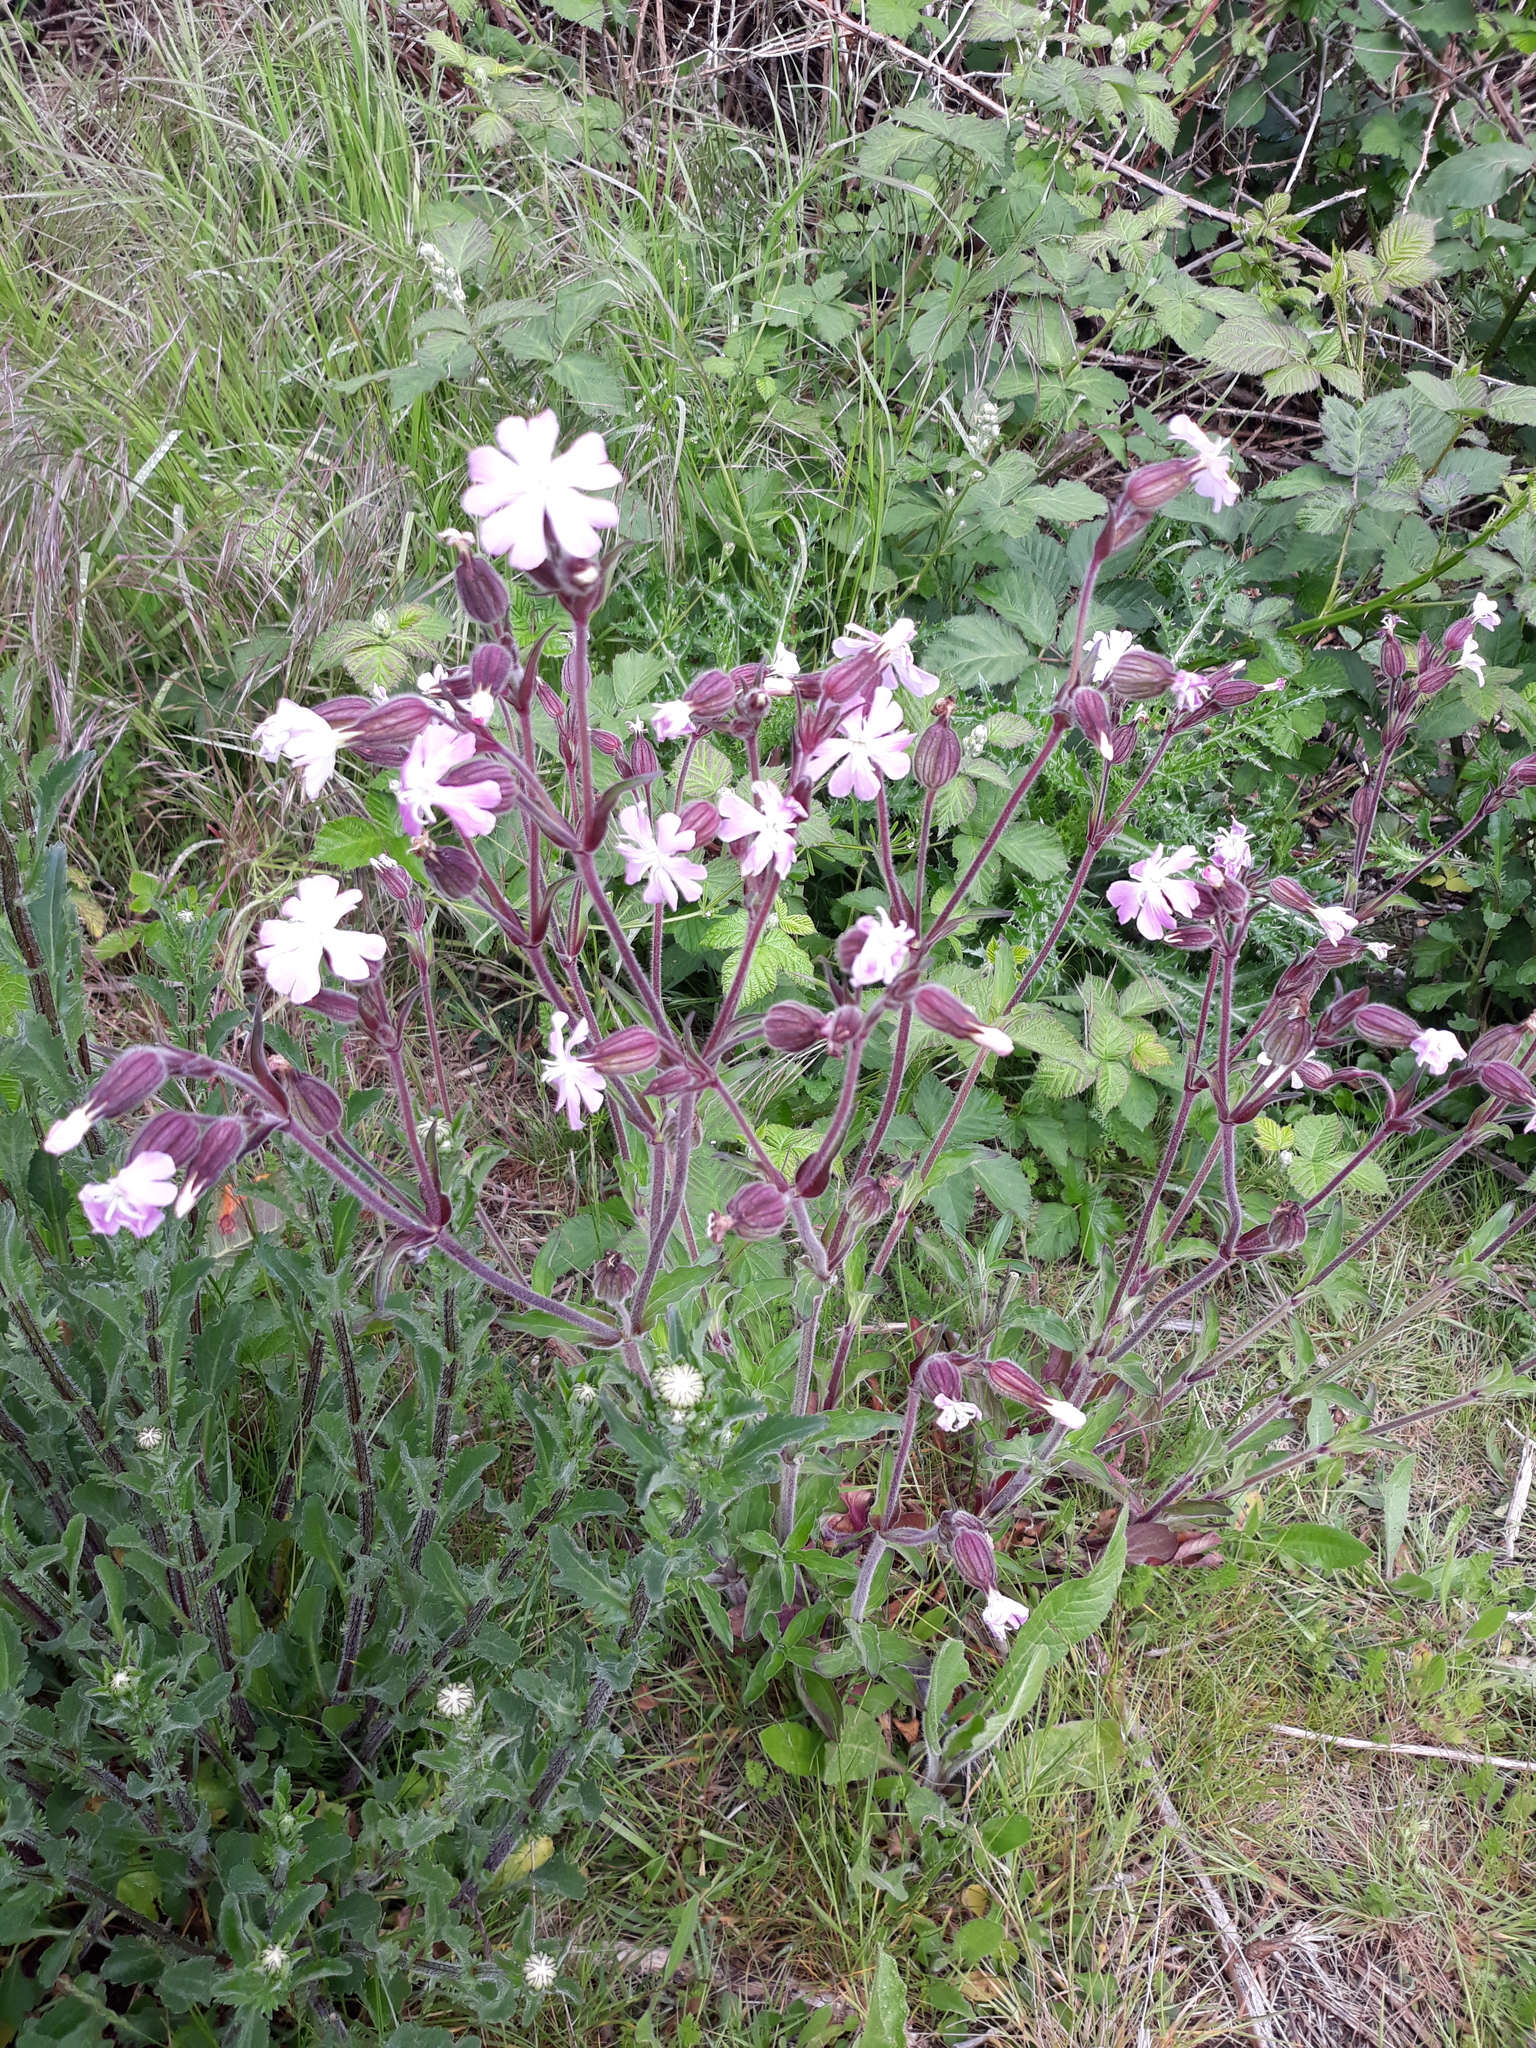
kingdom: Plantae
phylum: Tracheophyta
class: Magnoliopsida
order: Caryophyllales
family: Caryophyllaceae
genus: Silene
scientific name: Silene hampeana
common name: Catchfly
